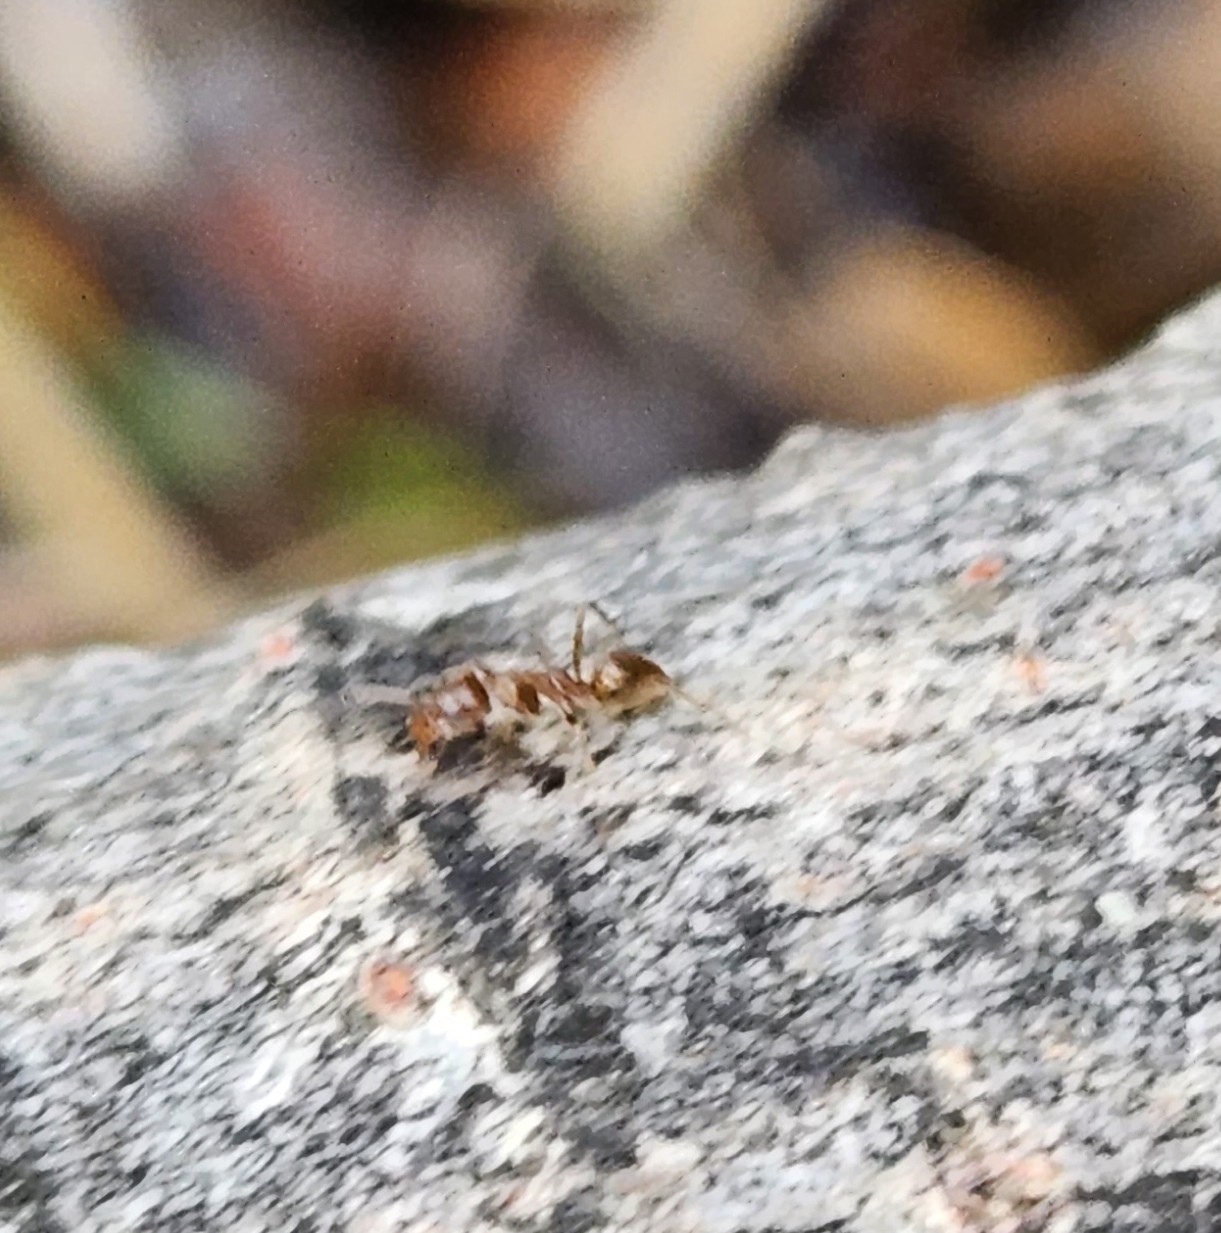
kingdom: Animalia
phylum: Arthropoda
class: Insecta
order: Hymenoptera
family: Formicidae
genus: Linepithema
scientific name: Linepithema humile
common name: Argentine ant
